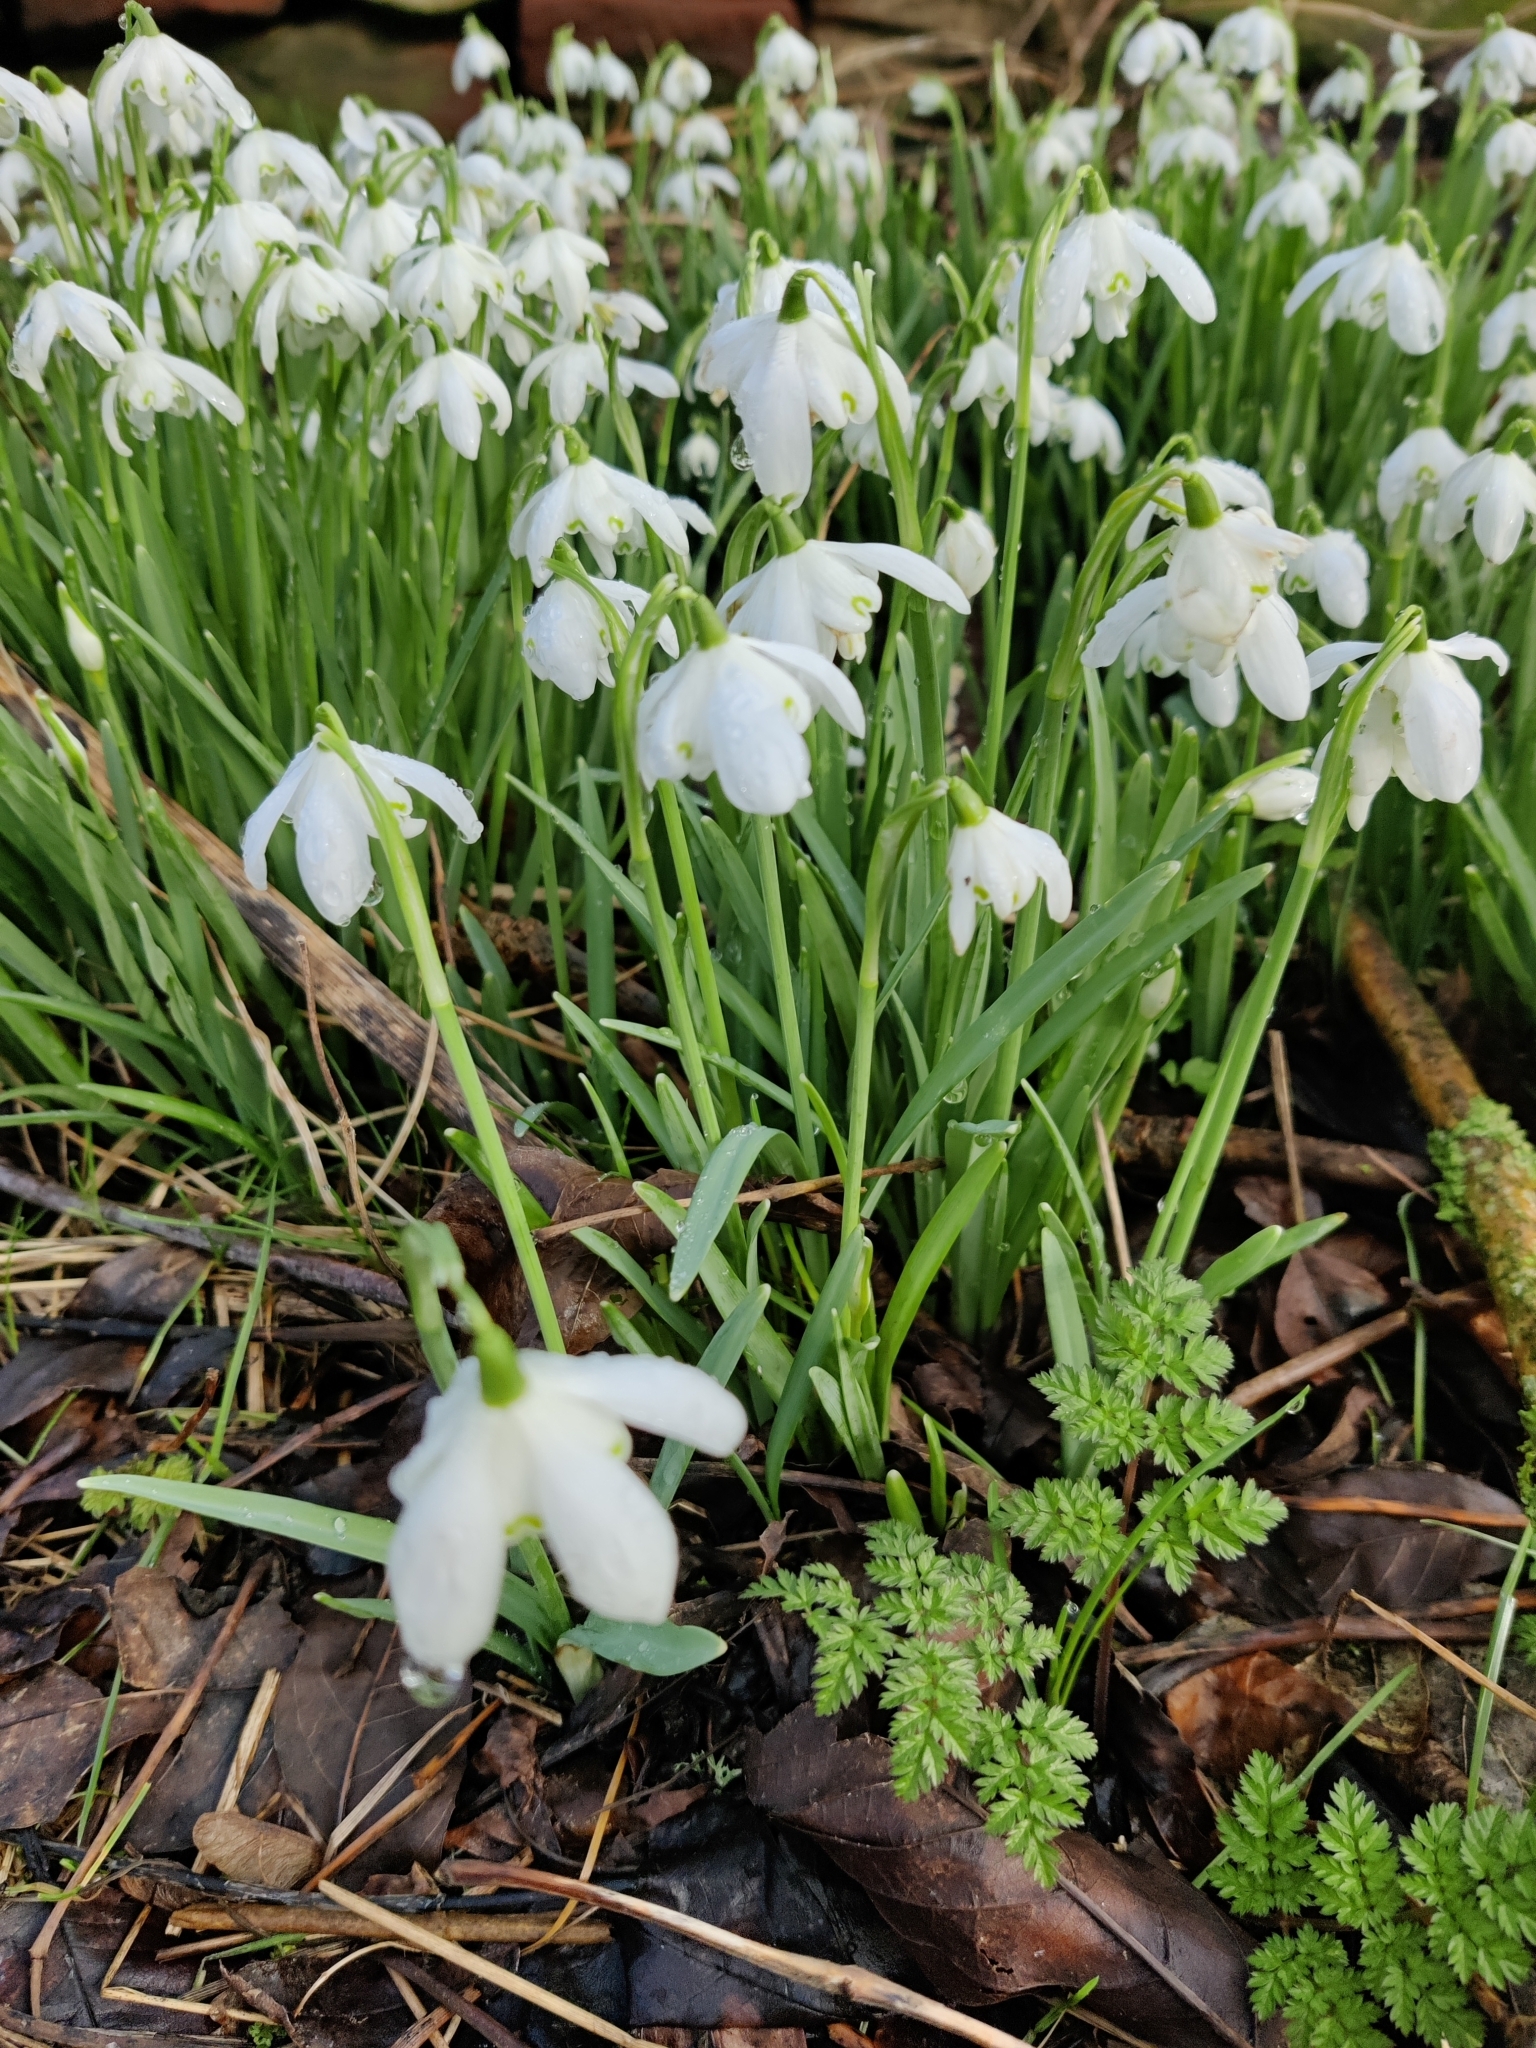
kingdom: Plantae
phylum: Tracheophyta
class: Liliopsida
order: Asparagales
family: Amaryllidaceae
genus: Galanthus
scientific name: Galanthus nivalis
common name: Snowdrop
